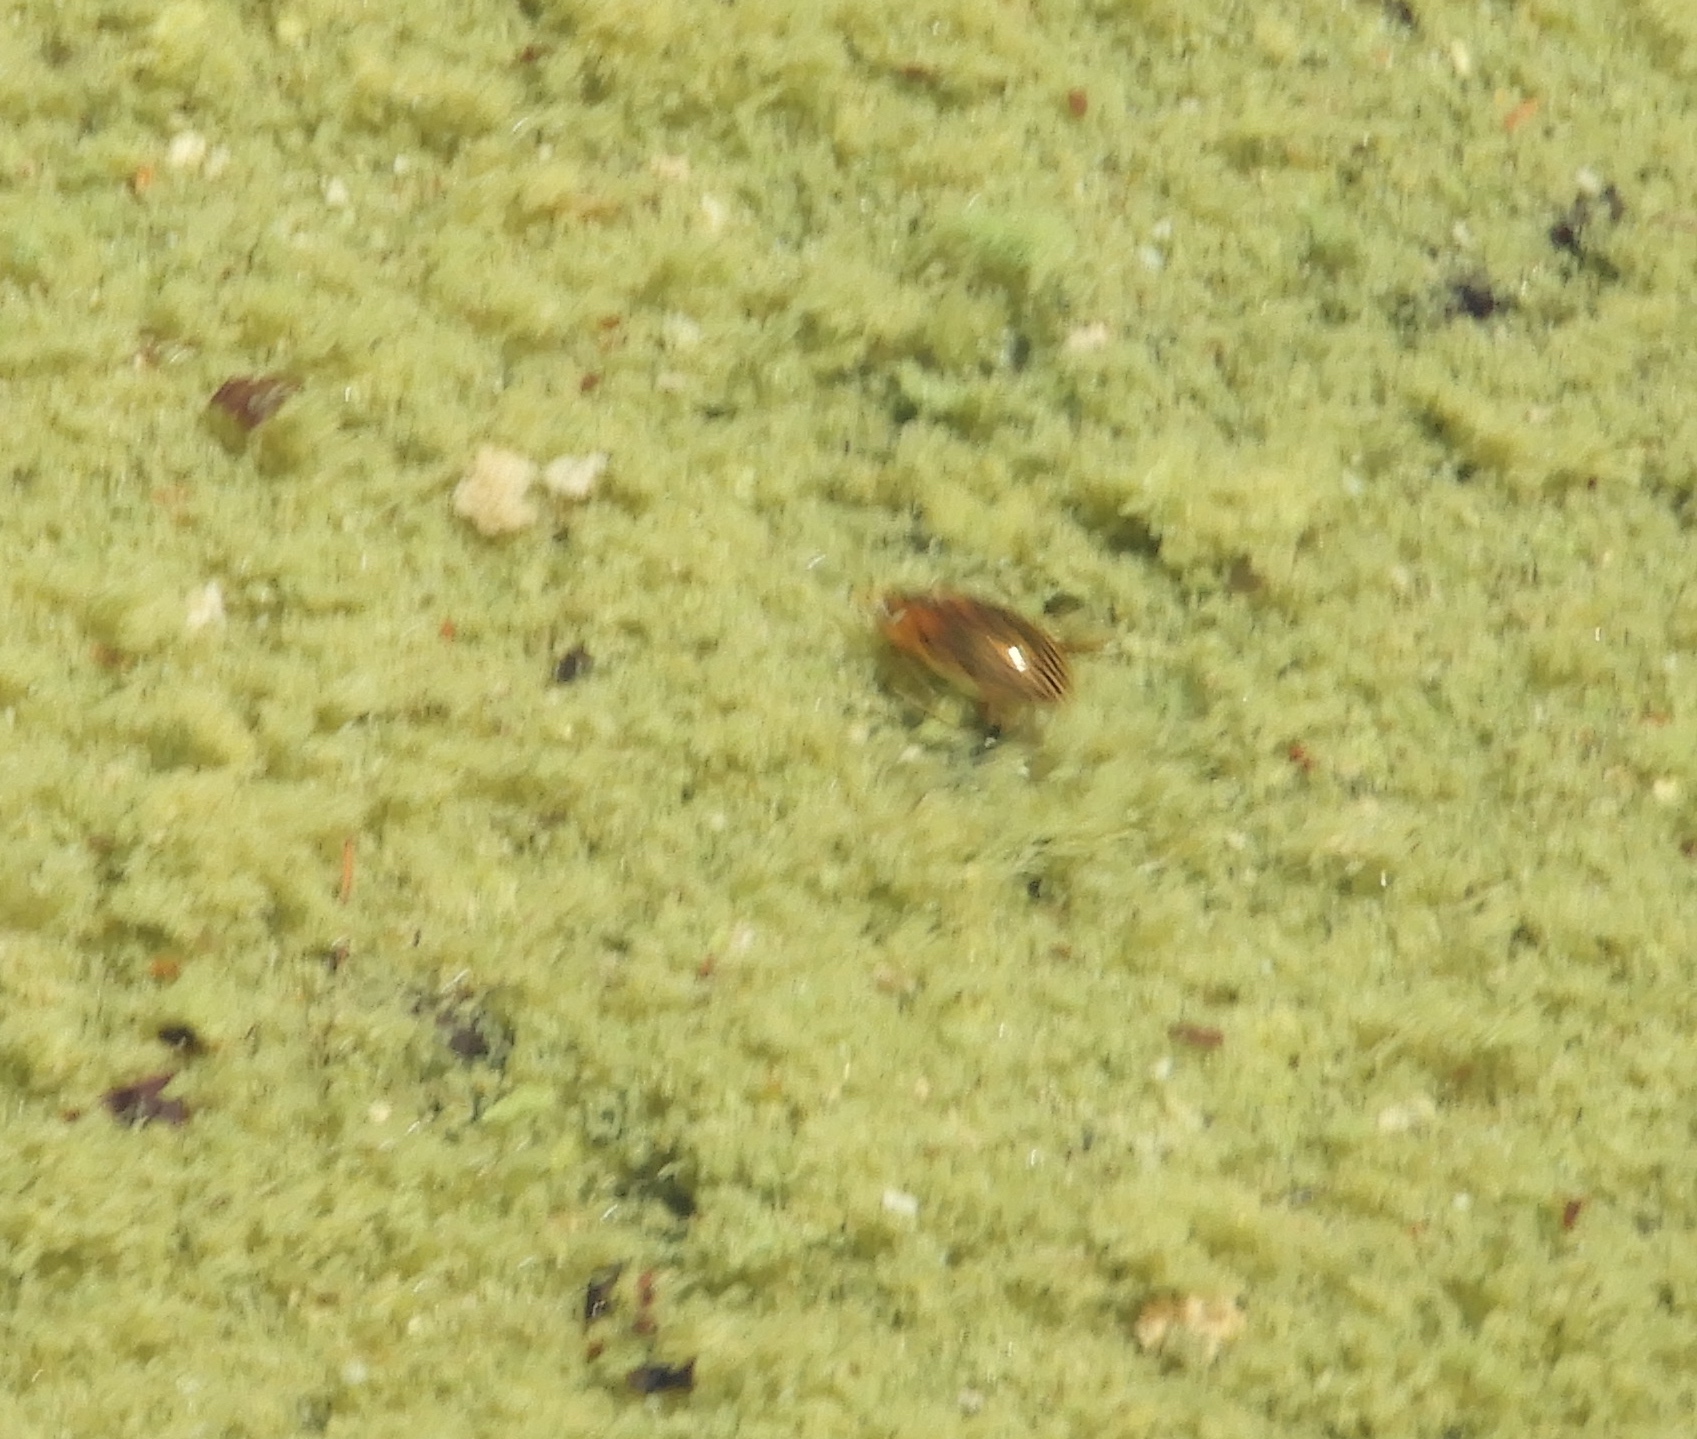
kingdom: Animalia
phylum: Arthropoda
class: Insecta
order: Coleoptera
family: Hydrophilidae
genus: Tropisternus
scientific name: Tropisternus collaris
